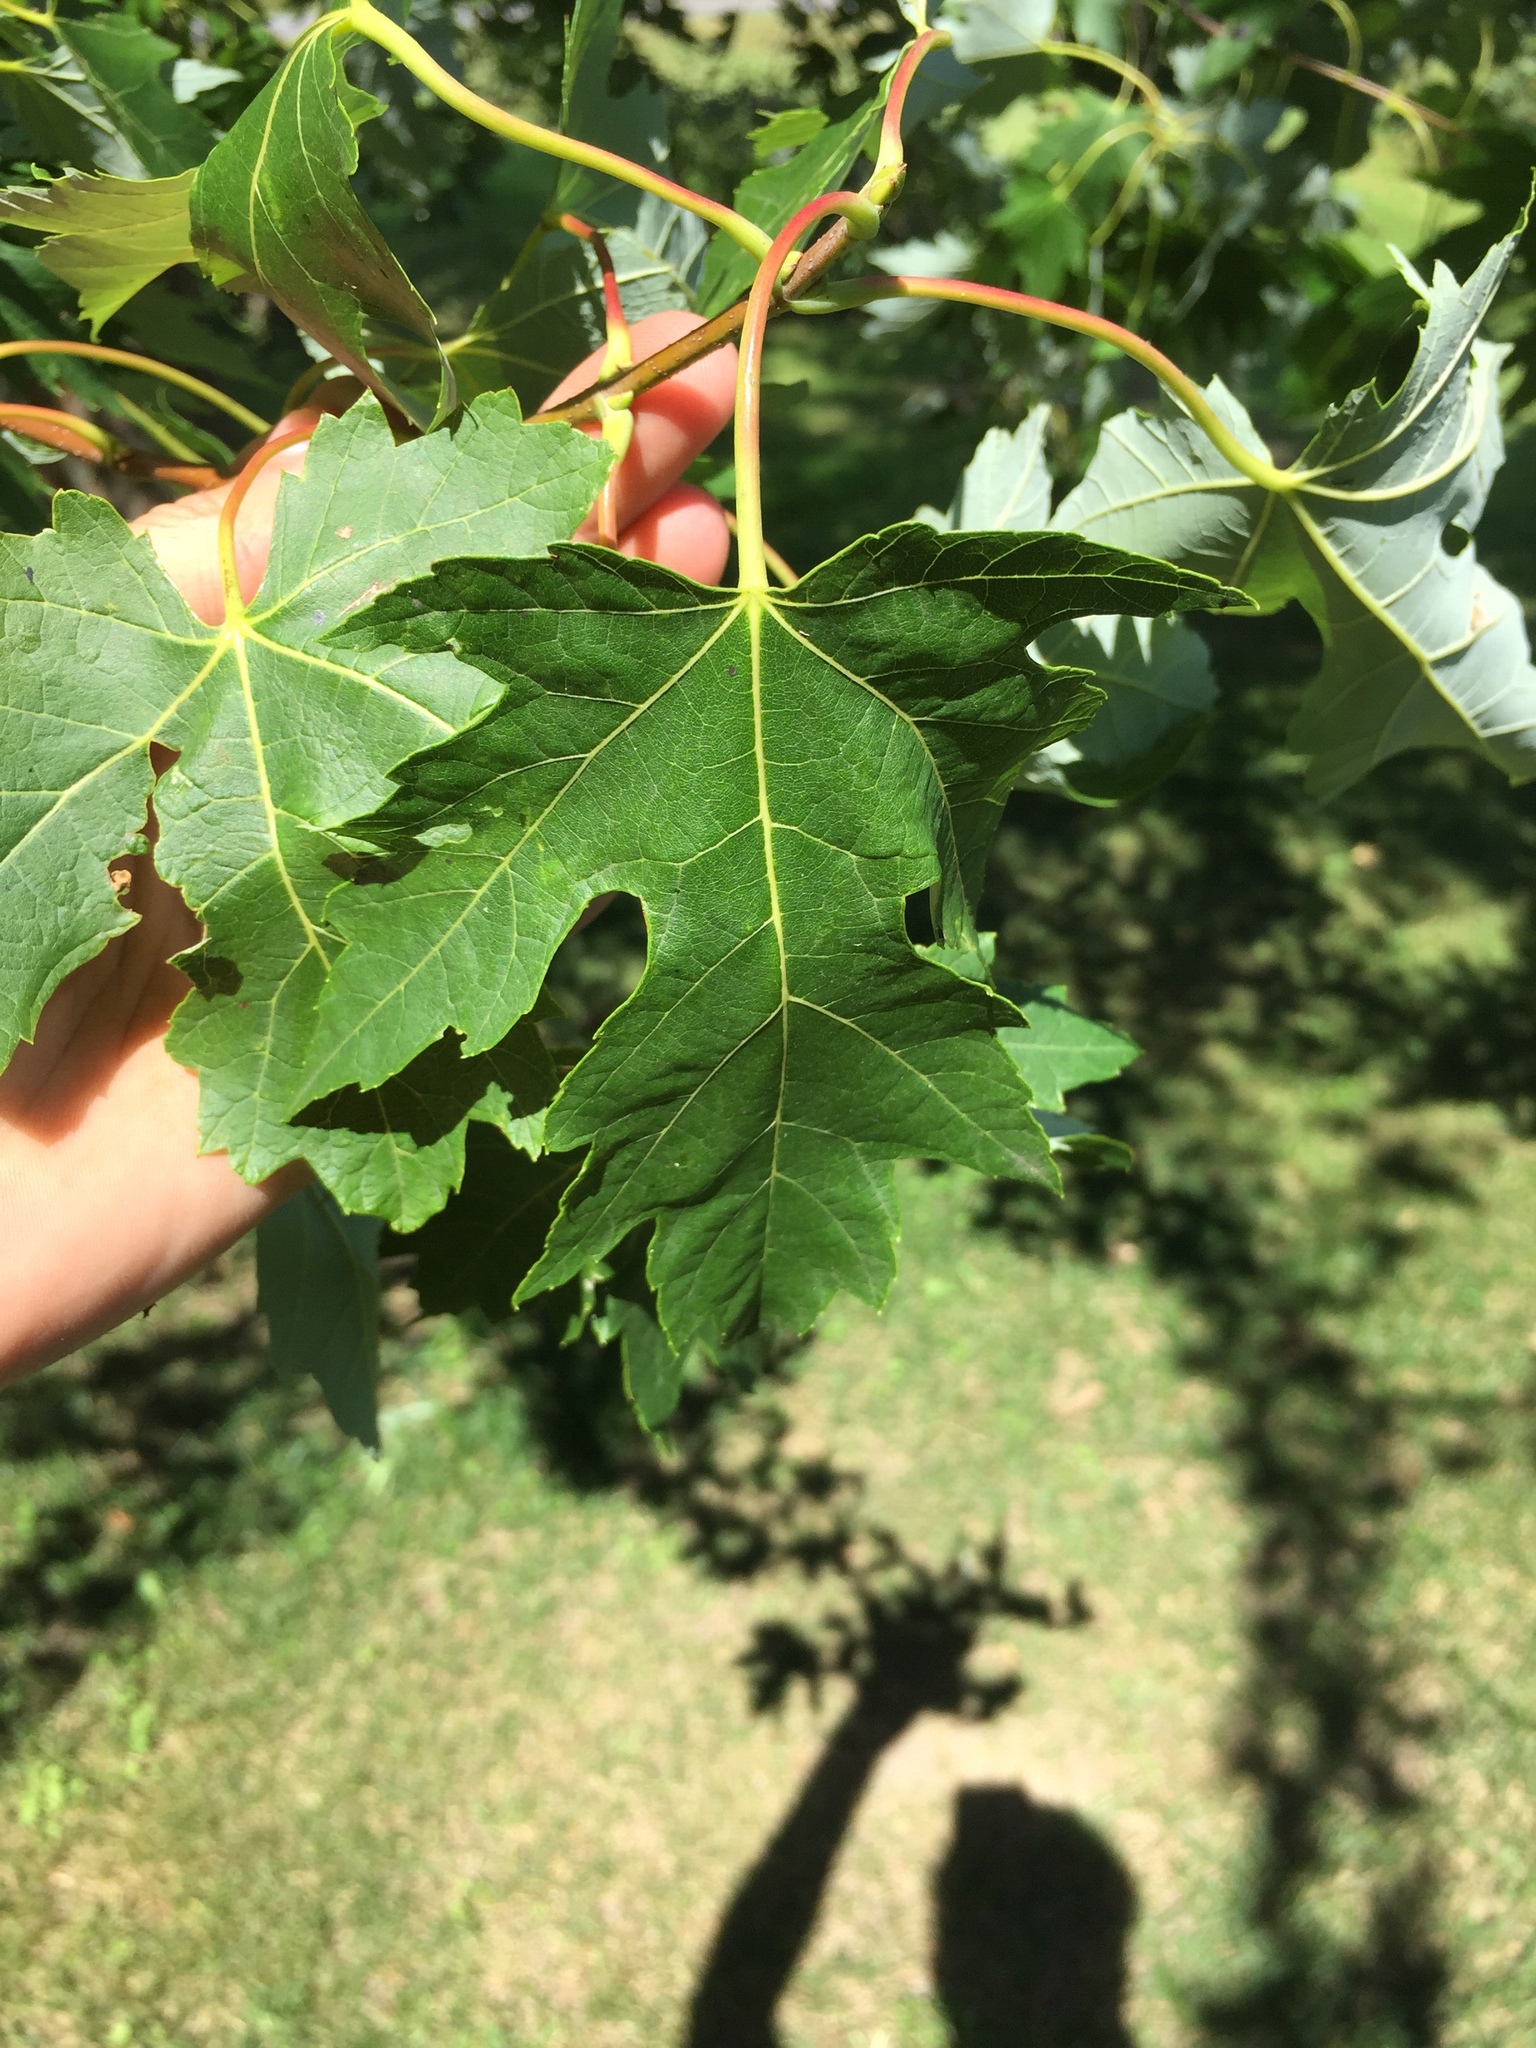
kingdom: Plantae
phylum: Tracheophyta
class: Magnoliopsida
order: Sapindales
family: Sapindaceae
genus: Acer
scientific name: Acer saccharinum
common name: Silver maple
